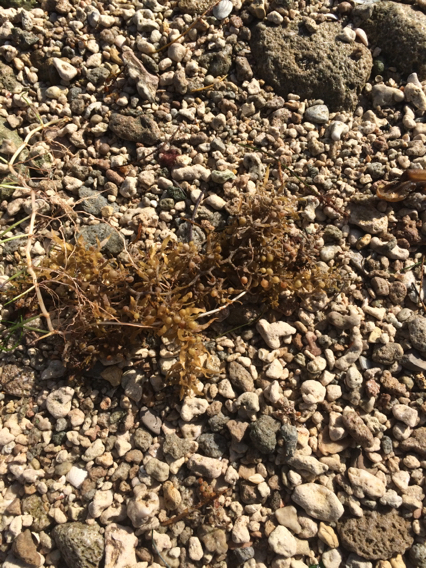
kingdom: Chromista
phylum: Ochrophyta
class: Phaeophyceae
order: Fucales
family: Sargassaceae
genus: Sargassum
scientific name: Sargassum natans
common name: Sargasso weed
